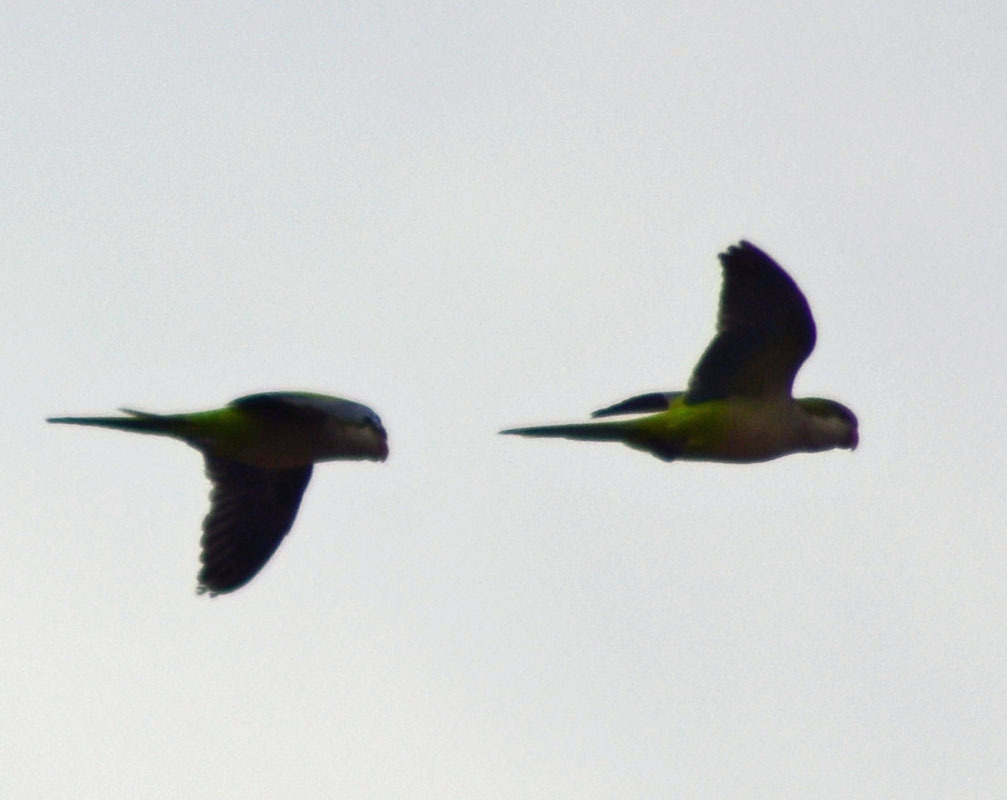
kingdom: Animalia
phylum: Chordata
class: Aves
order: Psittaciformes
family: Psittacidae
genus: Myiopsitta
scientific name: Myiopsitta monachus
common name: Monk parakeet
